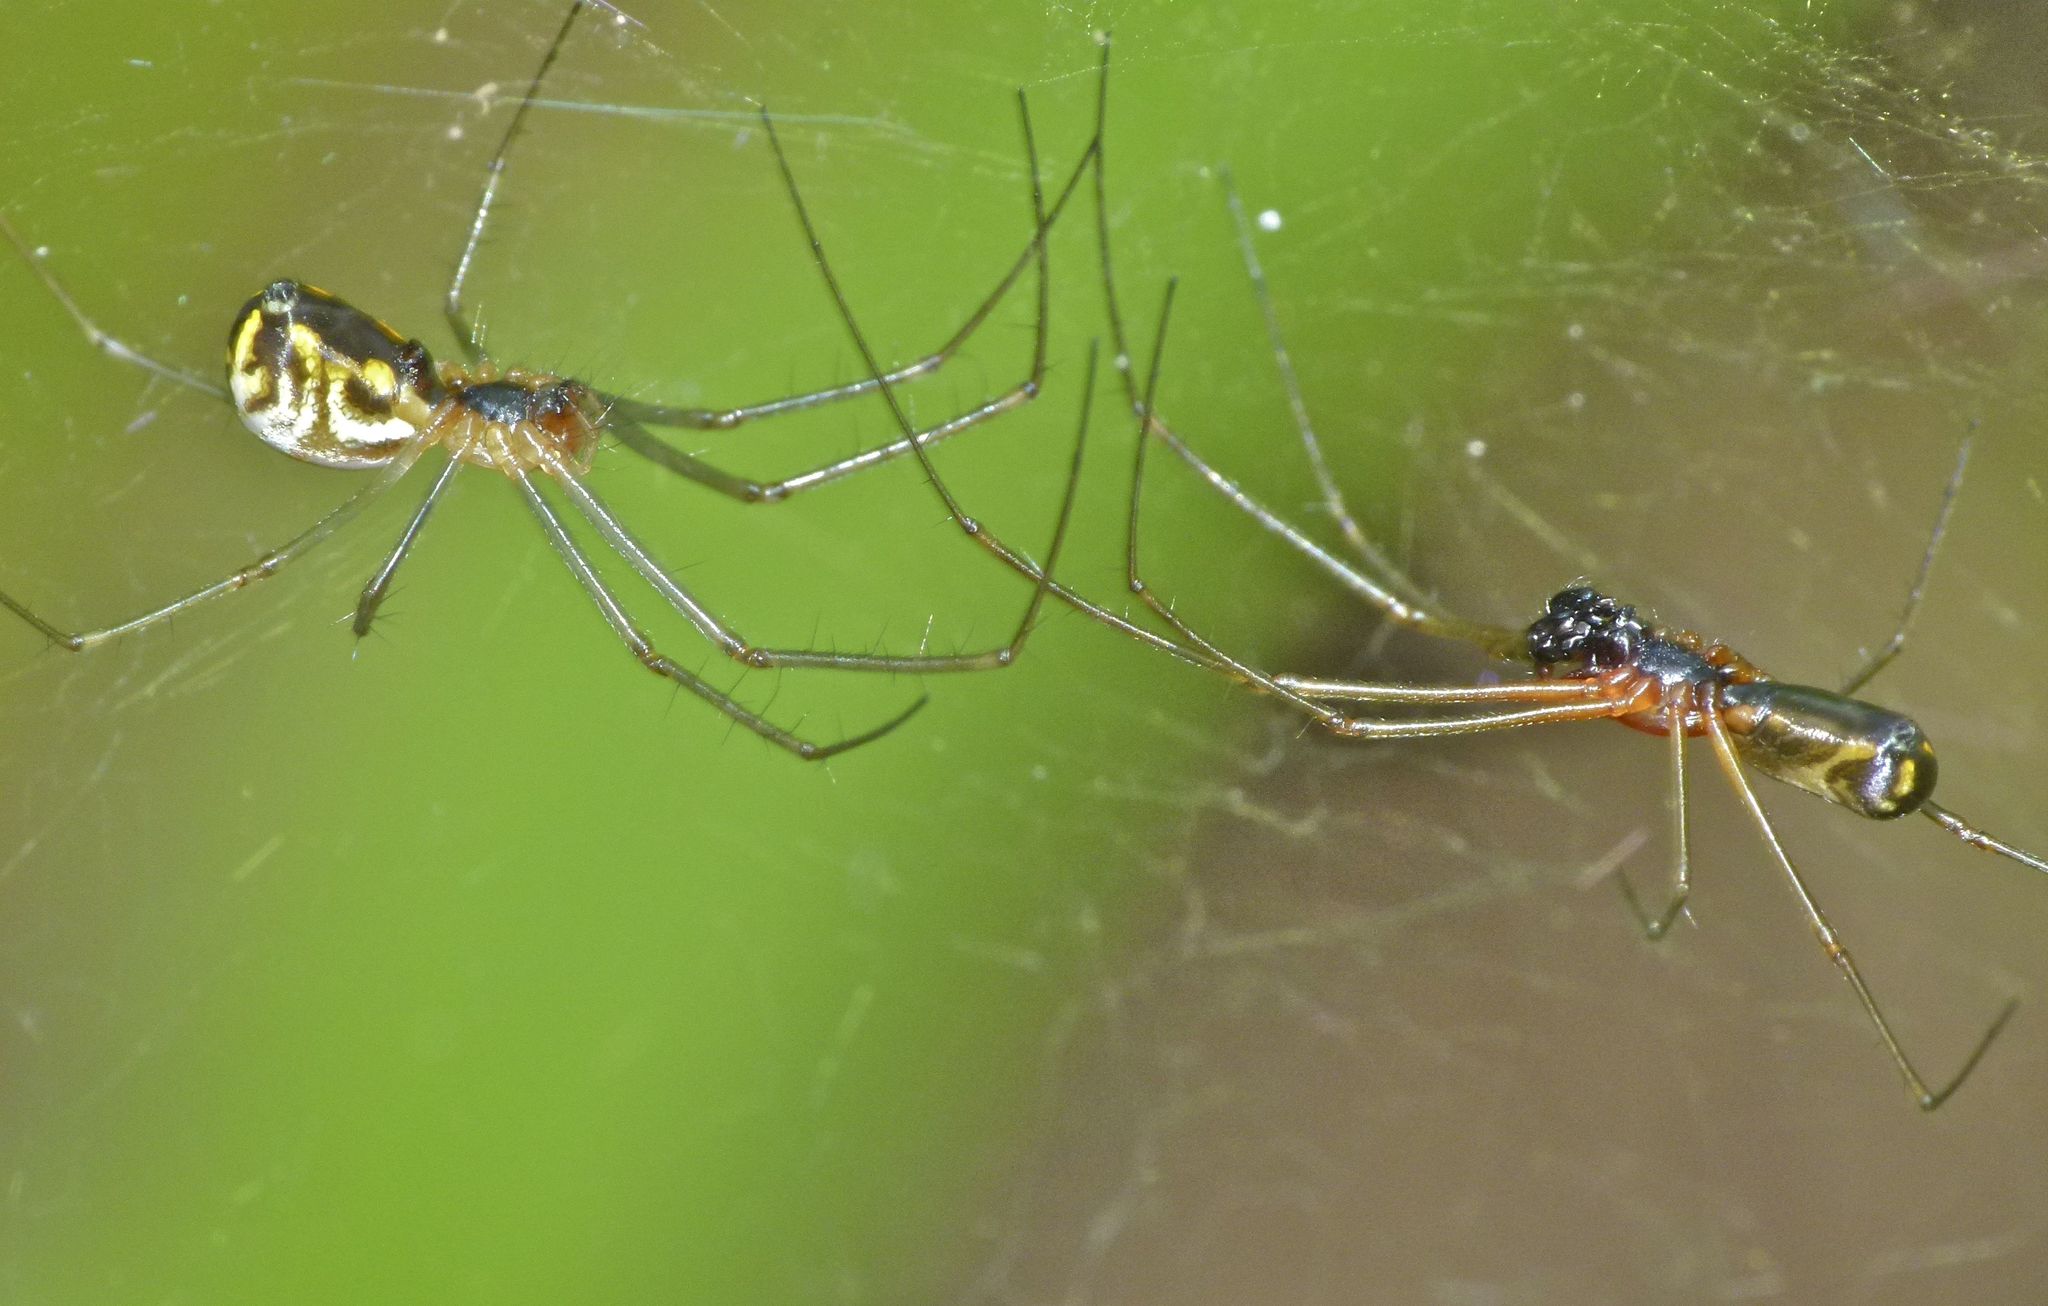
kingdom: Animalia
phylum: Arthropoda
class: Arachnida
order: Araneae
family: Linyphiidae
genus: Neriene
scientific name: Neriene radiata
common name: Filmy dome spider
